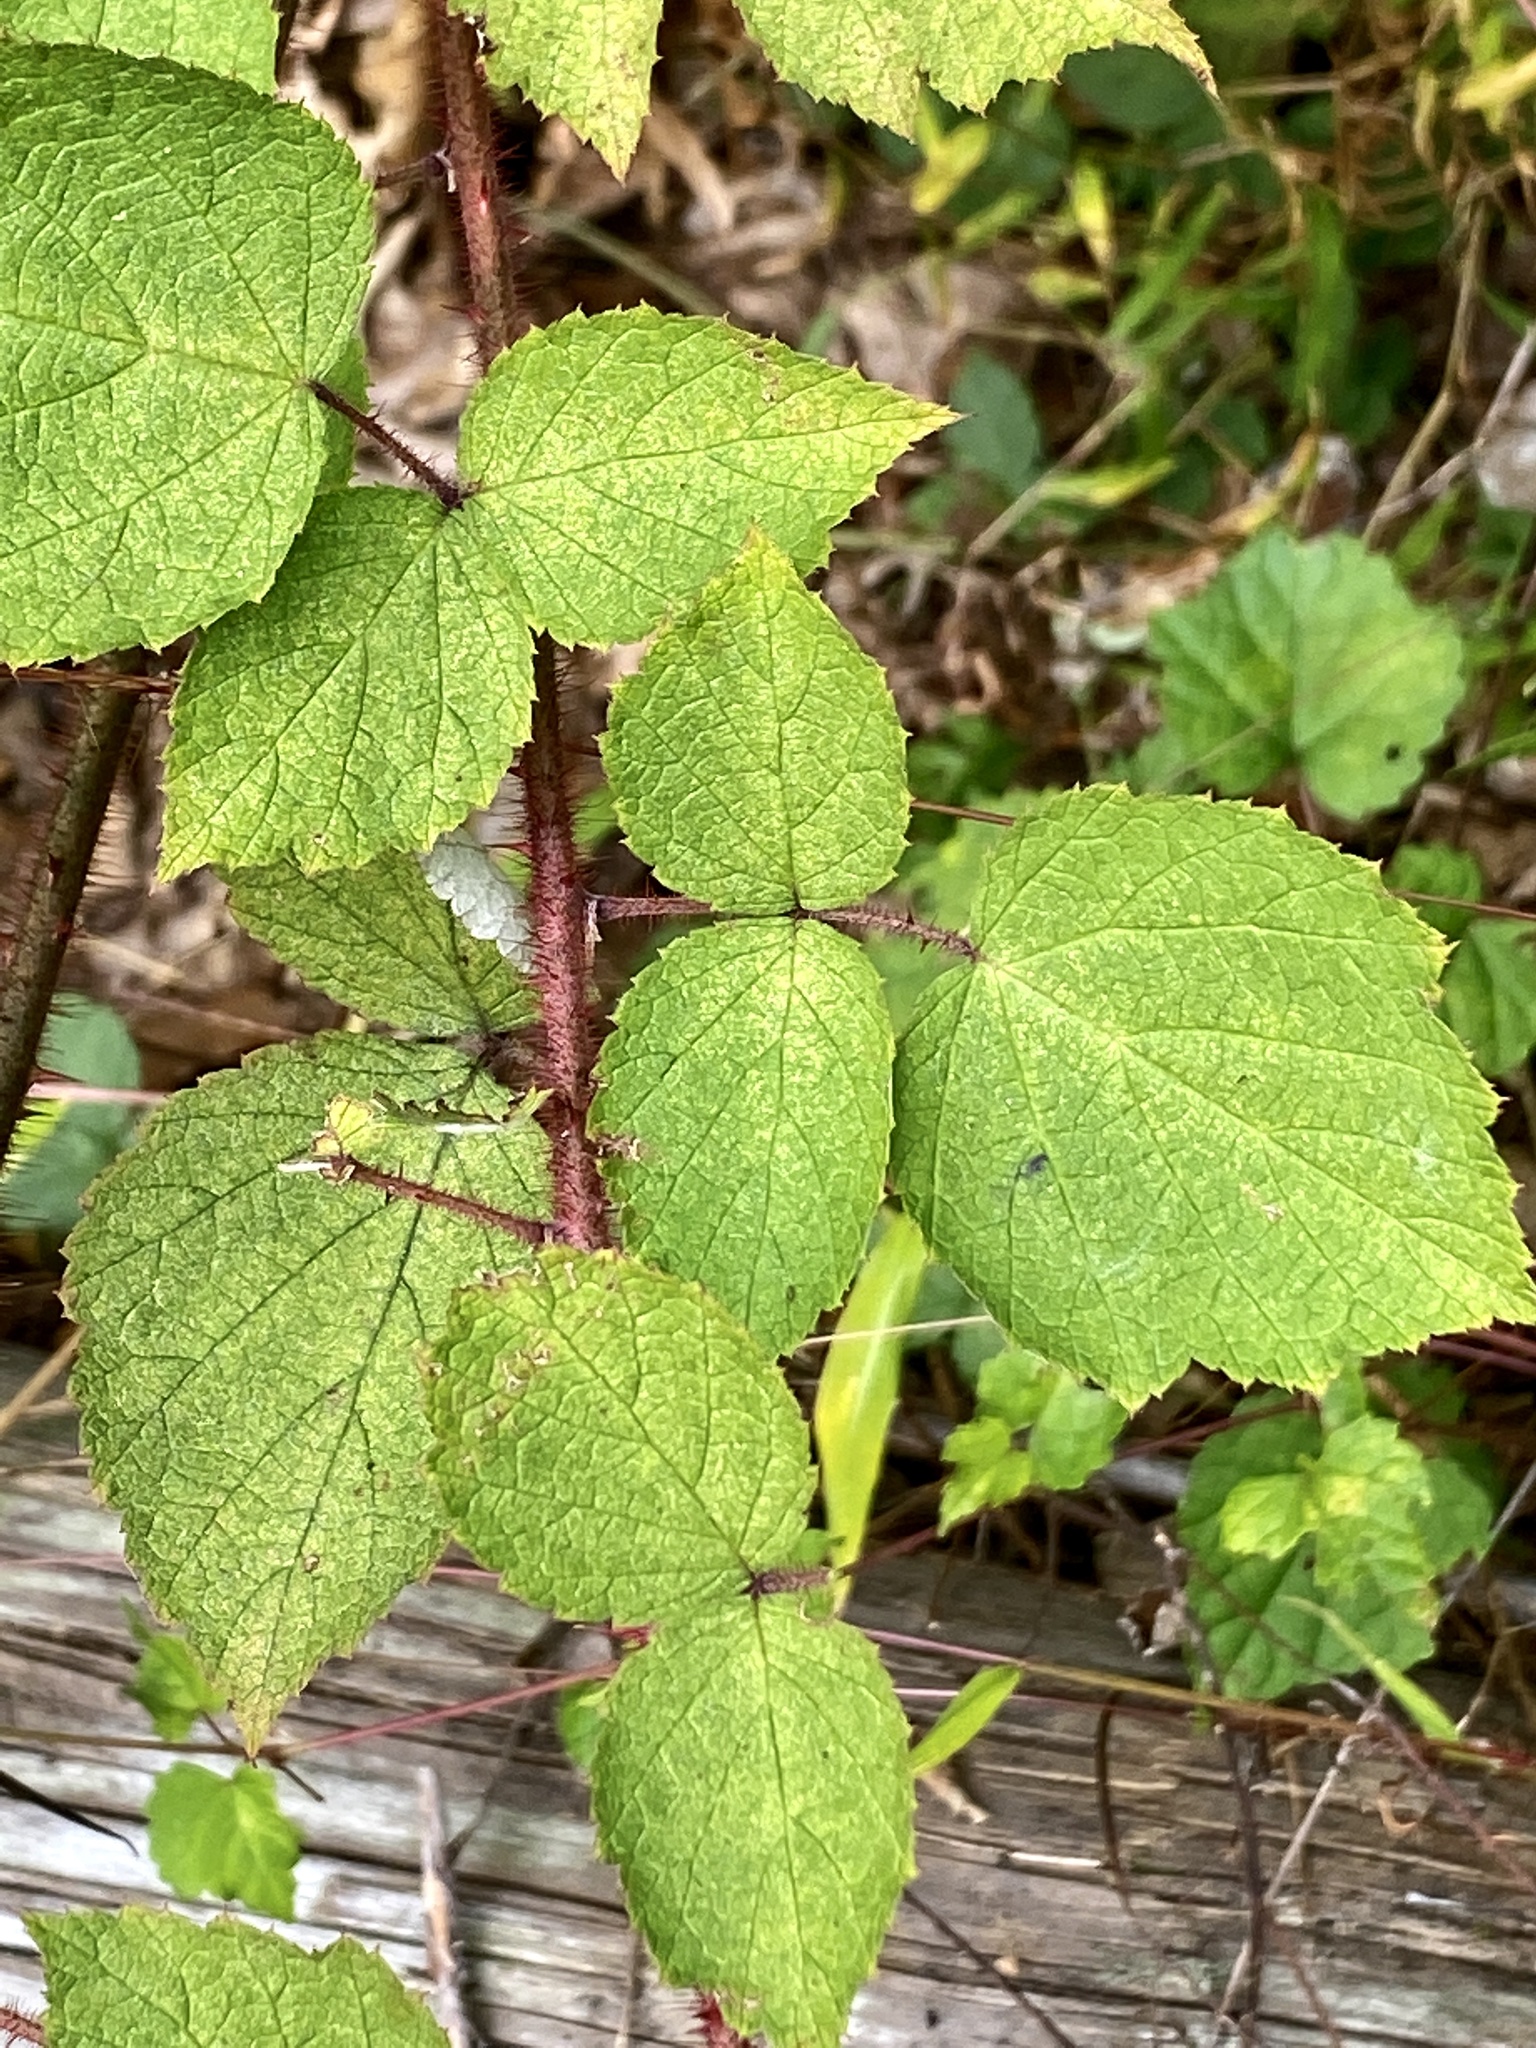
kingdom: Plantae
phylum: Tracheophyta
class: Magnoliopsida
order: Rosales
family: Rosaceae
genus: Rubus
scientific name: Rubus phoenicolasius
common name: Japanese wineberry
